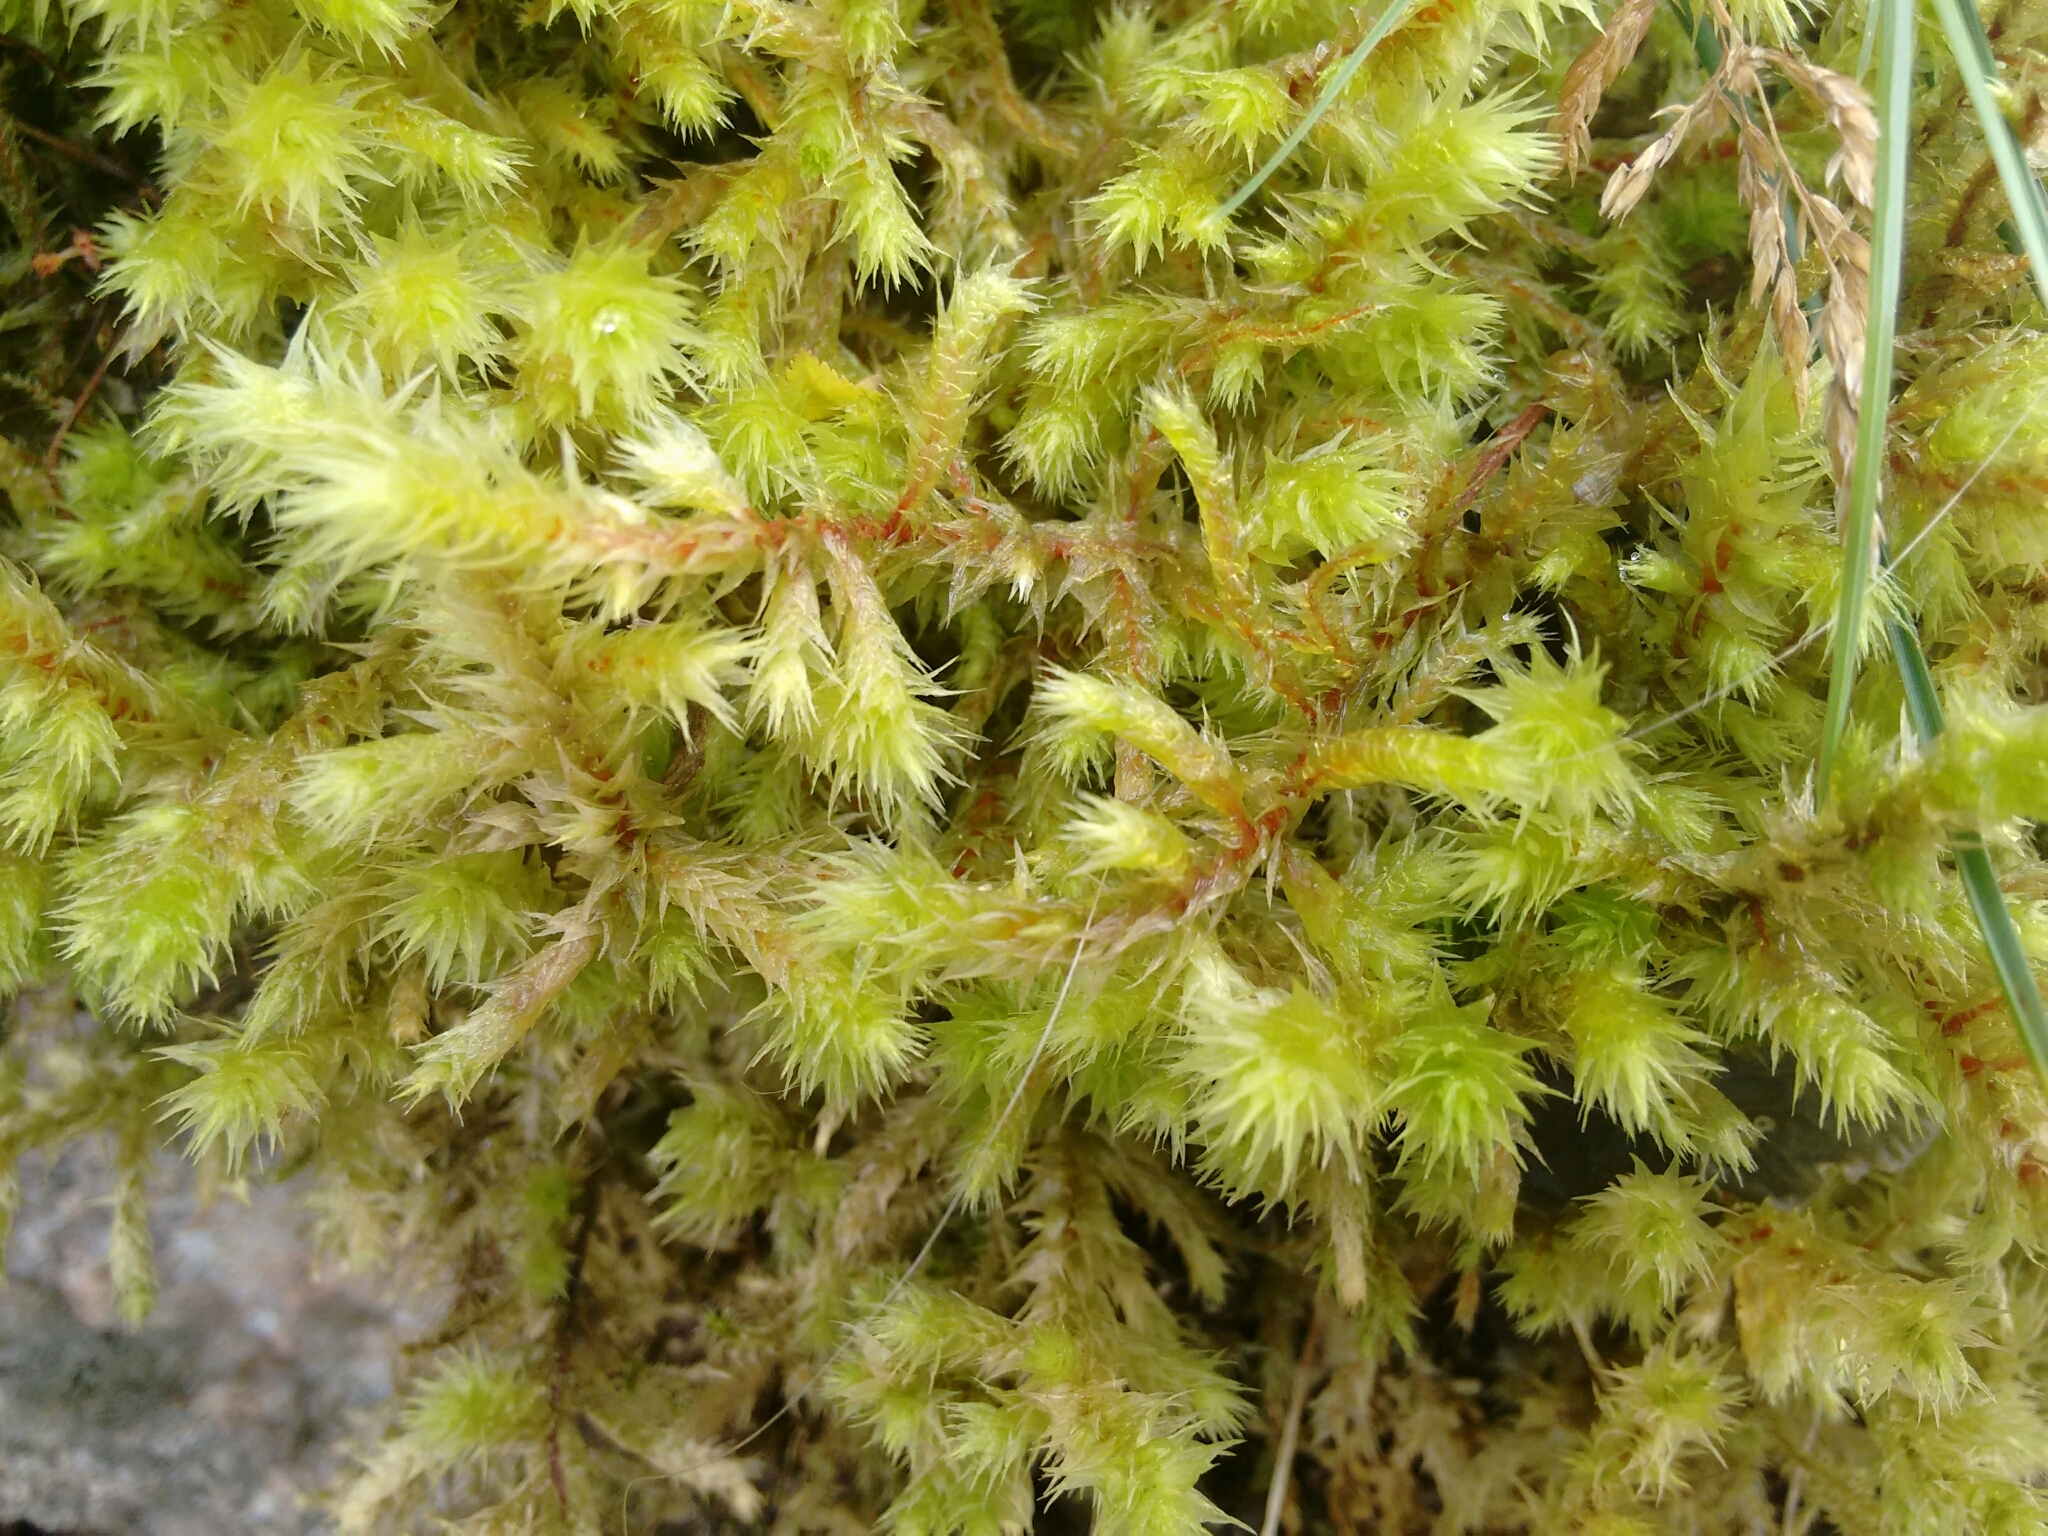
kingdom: Plantae
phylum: Bryophyta
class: Bryopsida
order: Hypnales
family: Hylocomiaceae
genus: Hylocomiadelphus
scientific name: Hylocomiadelphus triquetrus
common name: Rough goose neck moss
